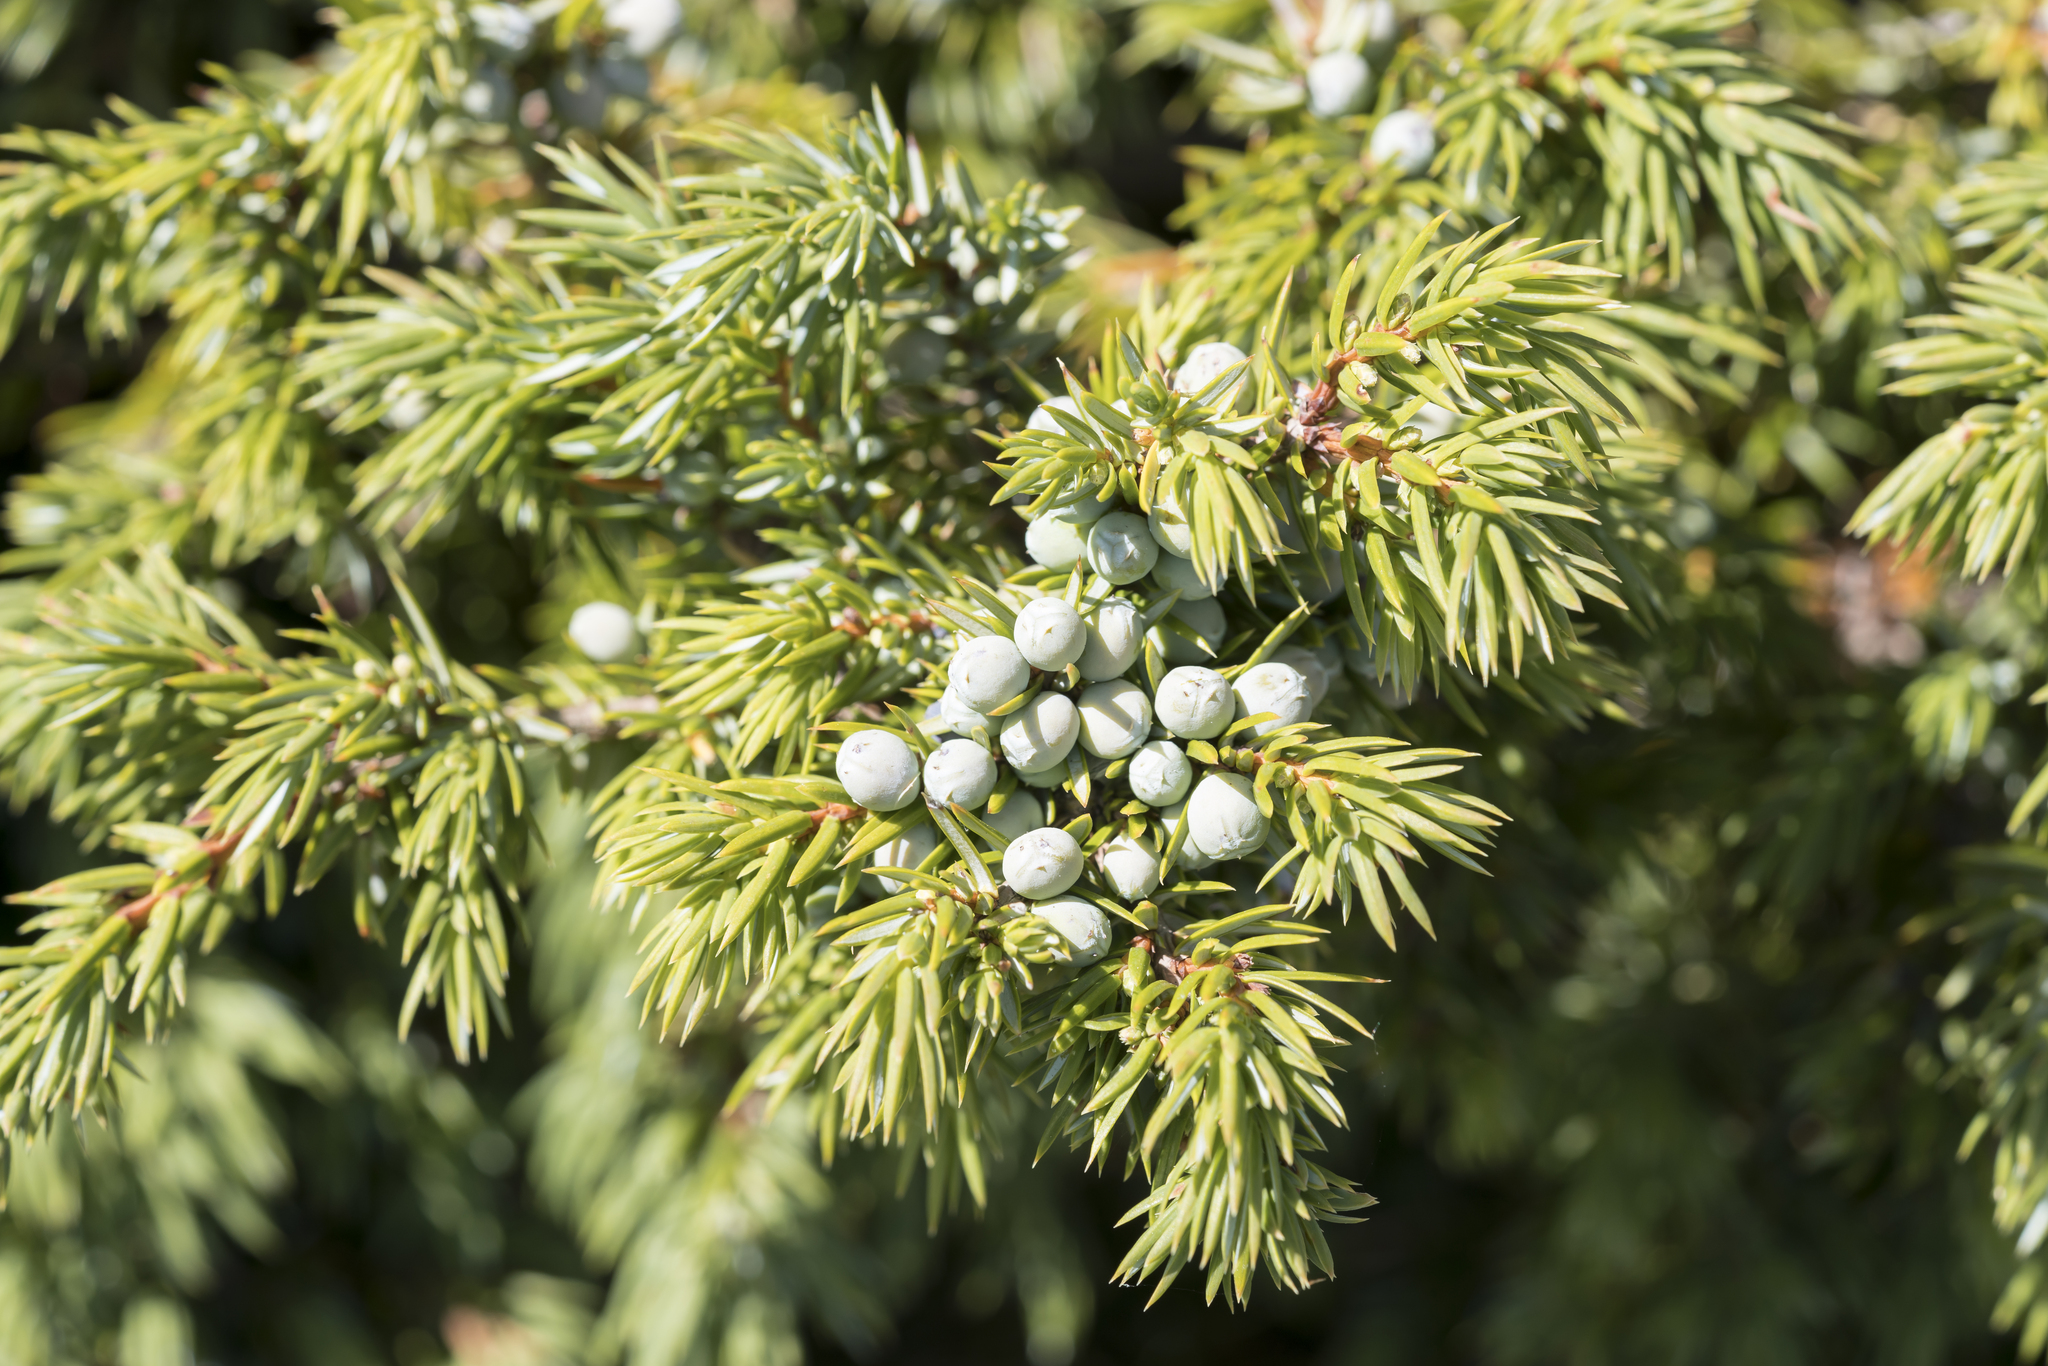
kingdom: Plantae
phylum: Tracheophyta
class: Pinopsida
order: Pinales
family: Cupressaceae
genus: Juniperus
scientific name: Juniperus communis
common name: Common juniper
